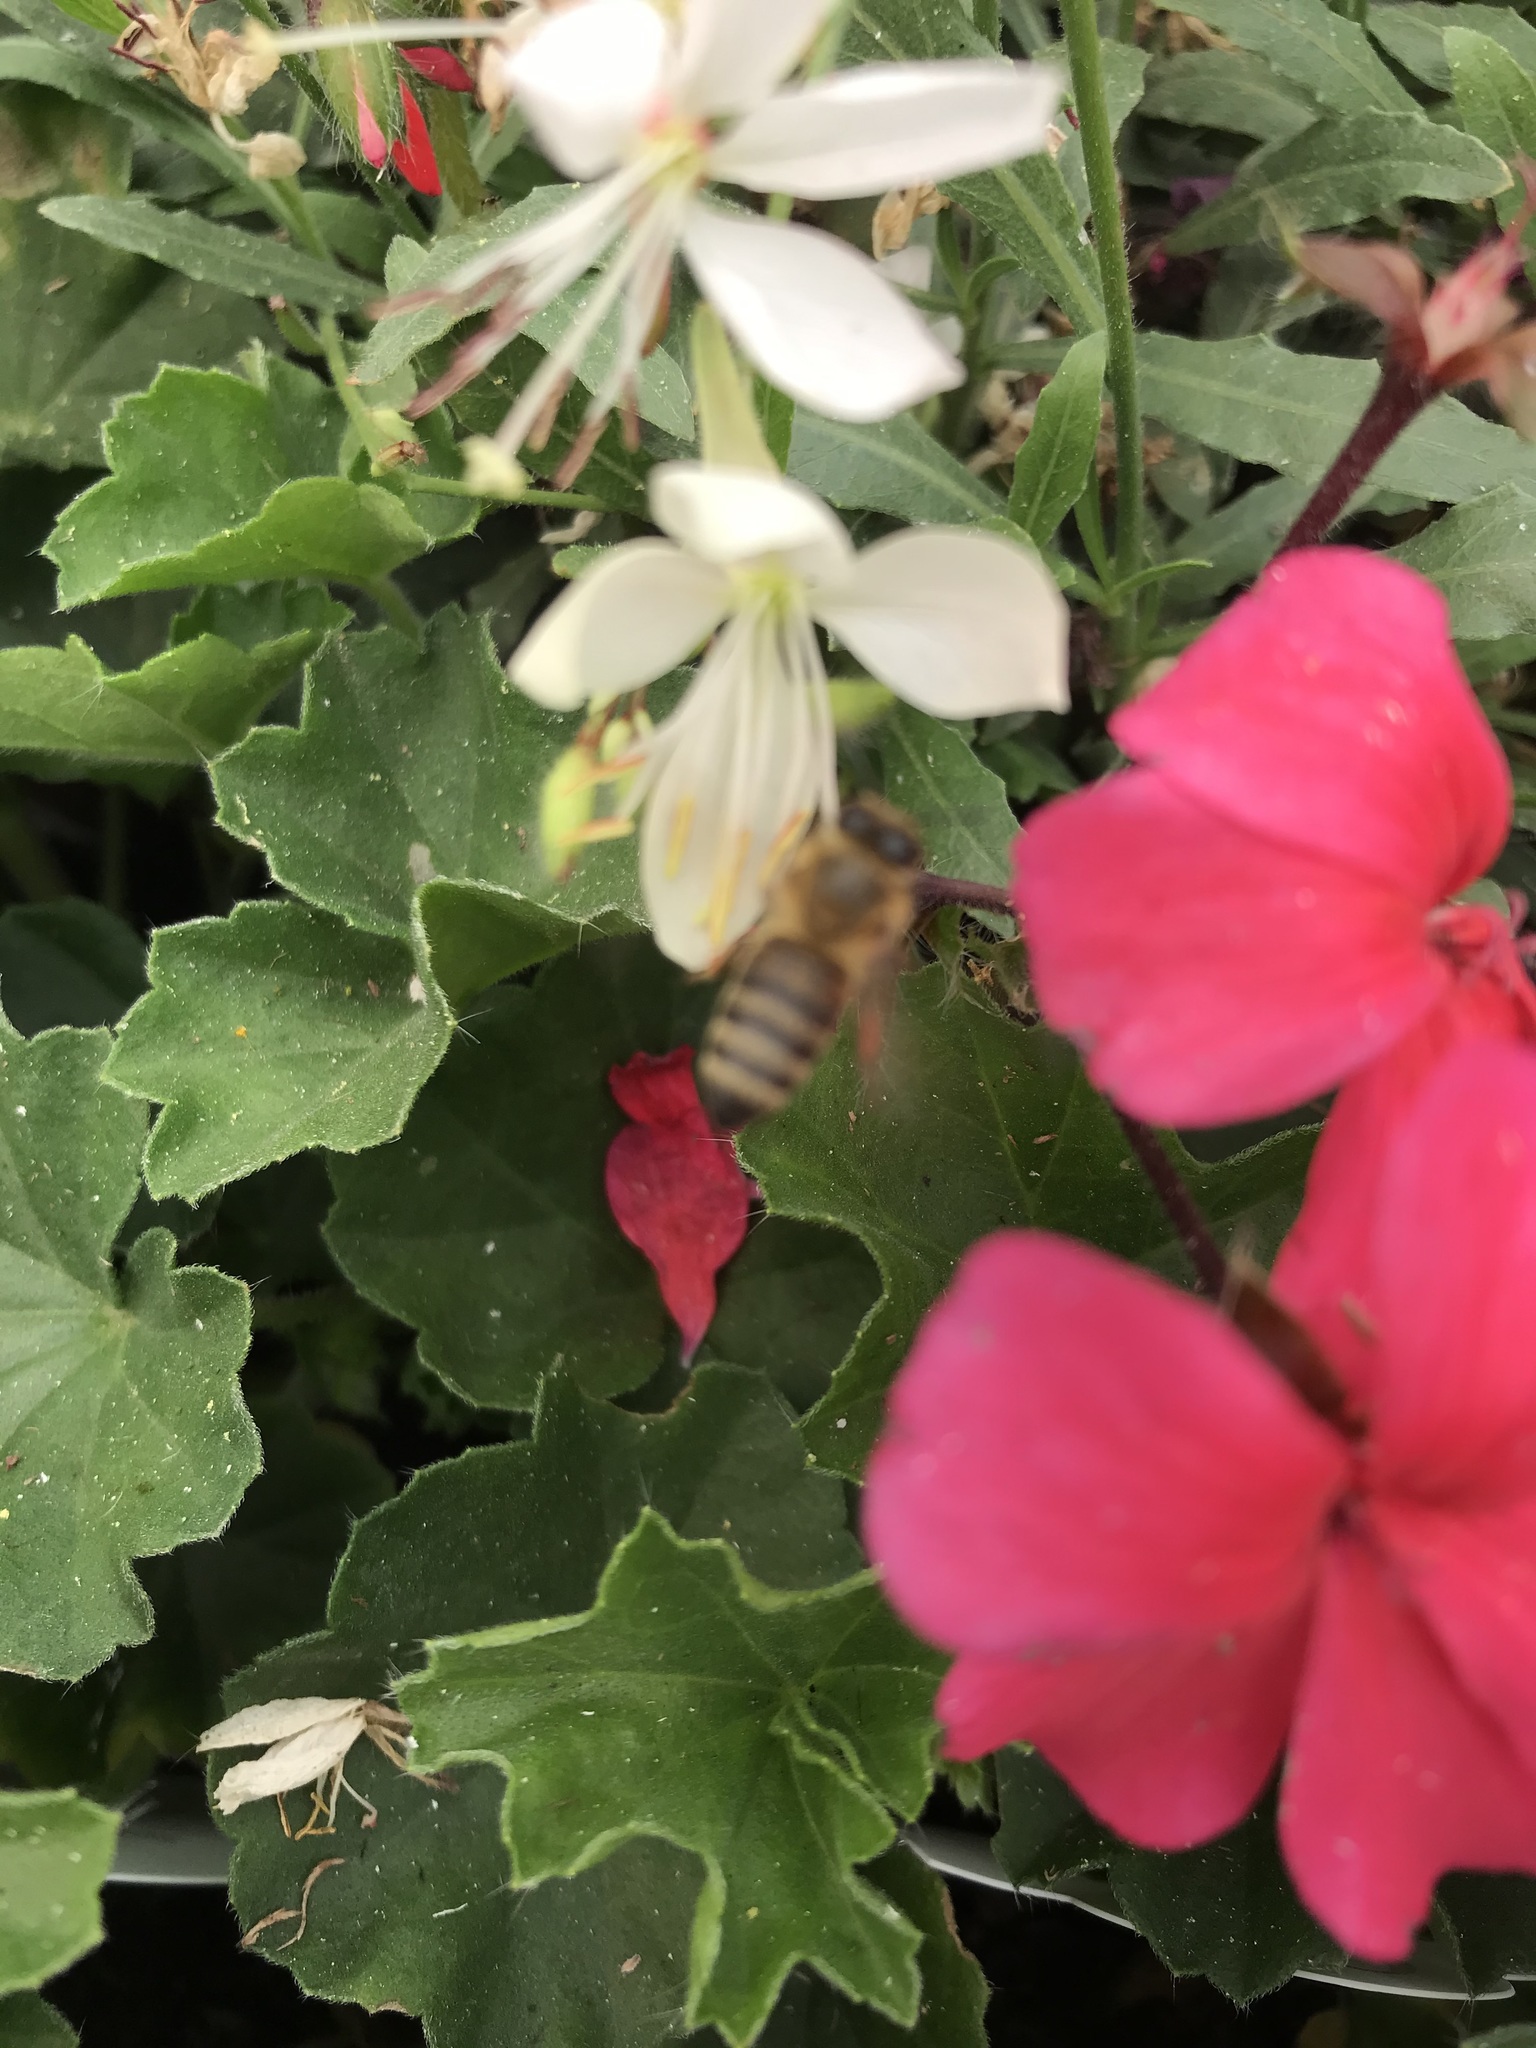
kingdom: Animalia
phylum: Arthropoda
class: Insecta
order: Hymenoptera
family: Apidae
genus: Apis
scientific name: Apis mellifera
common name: Honey bee
